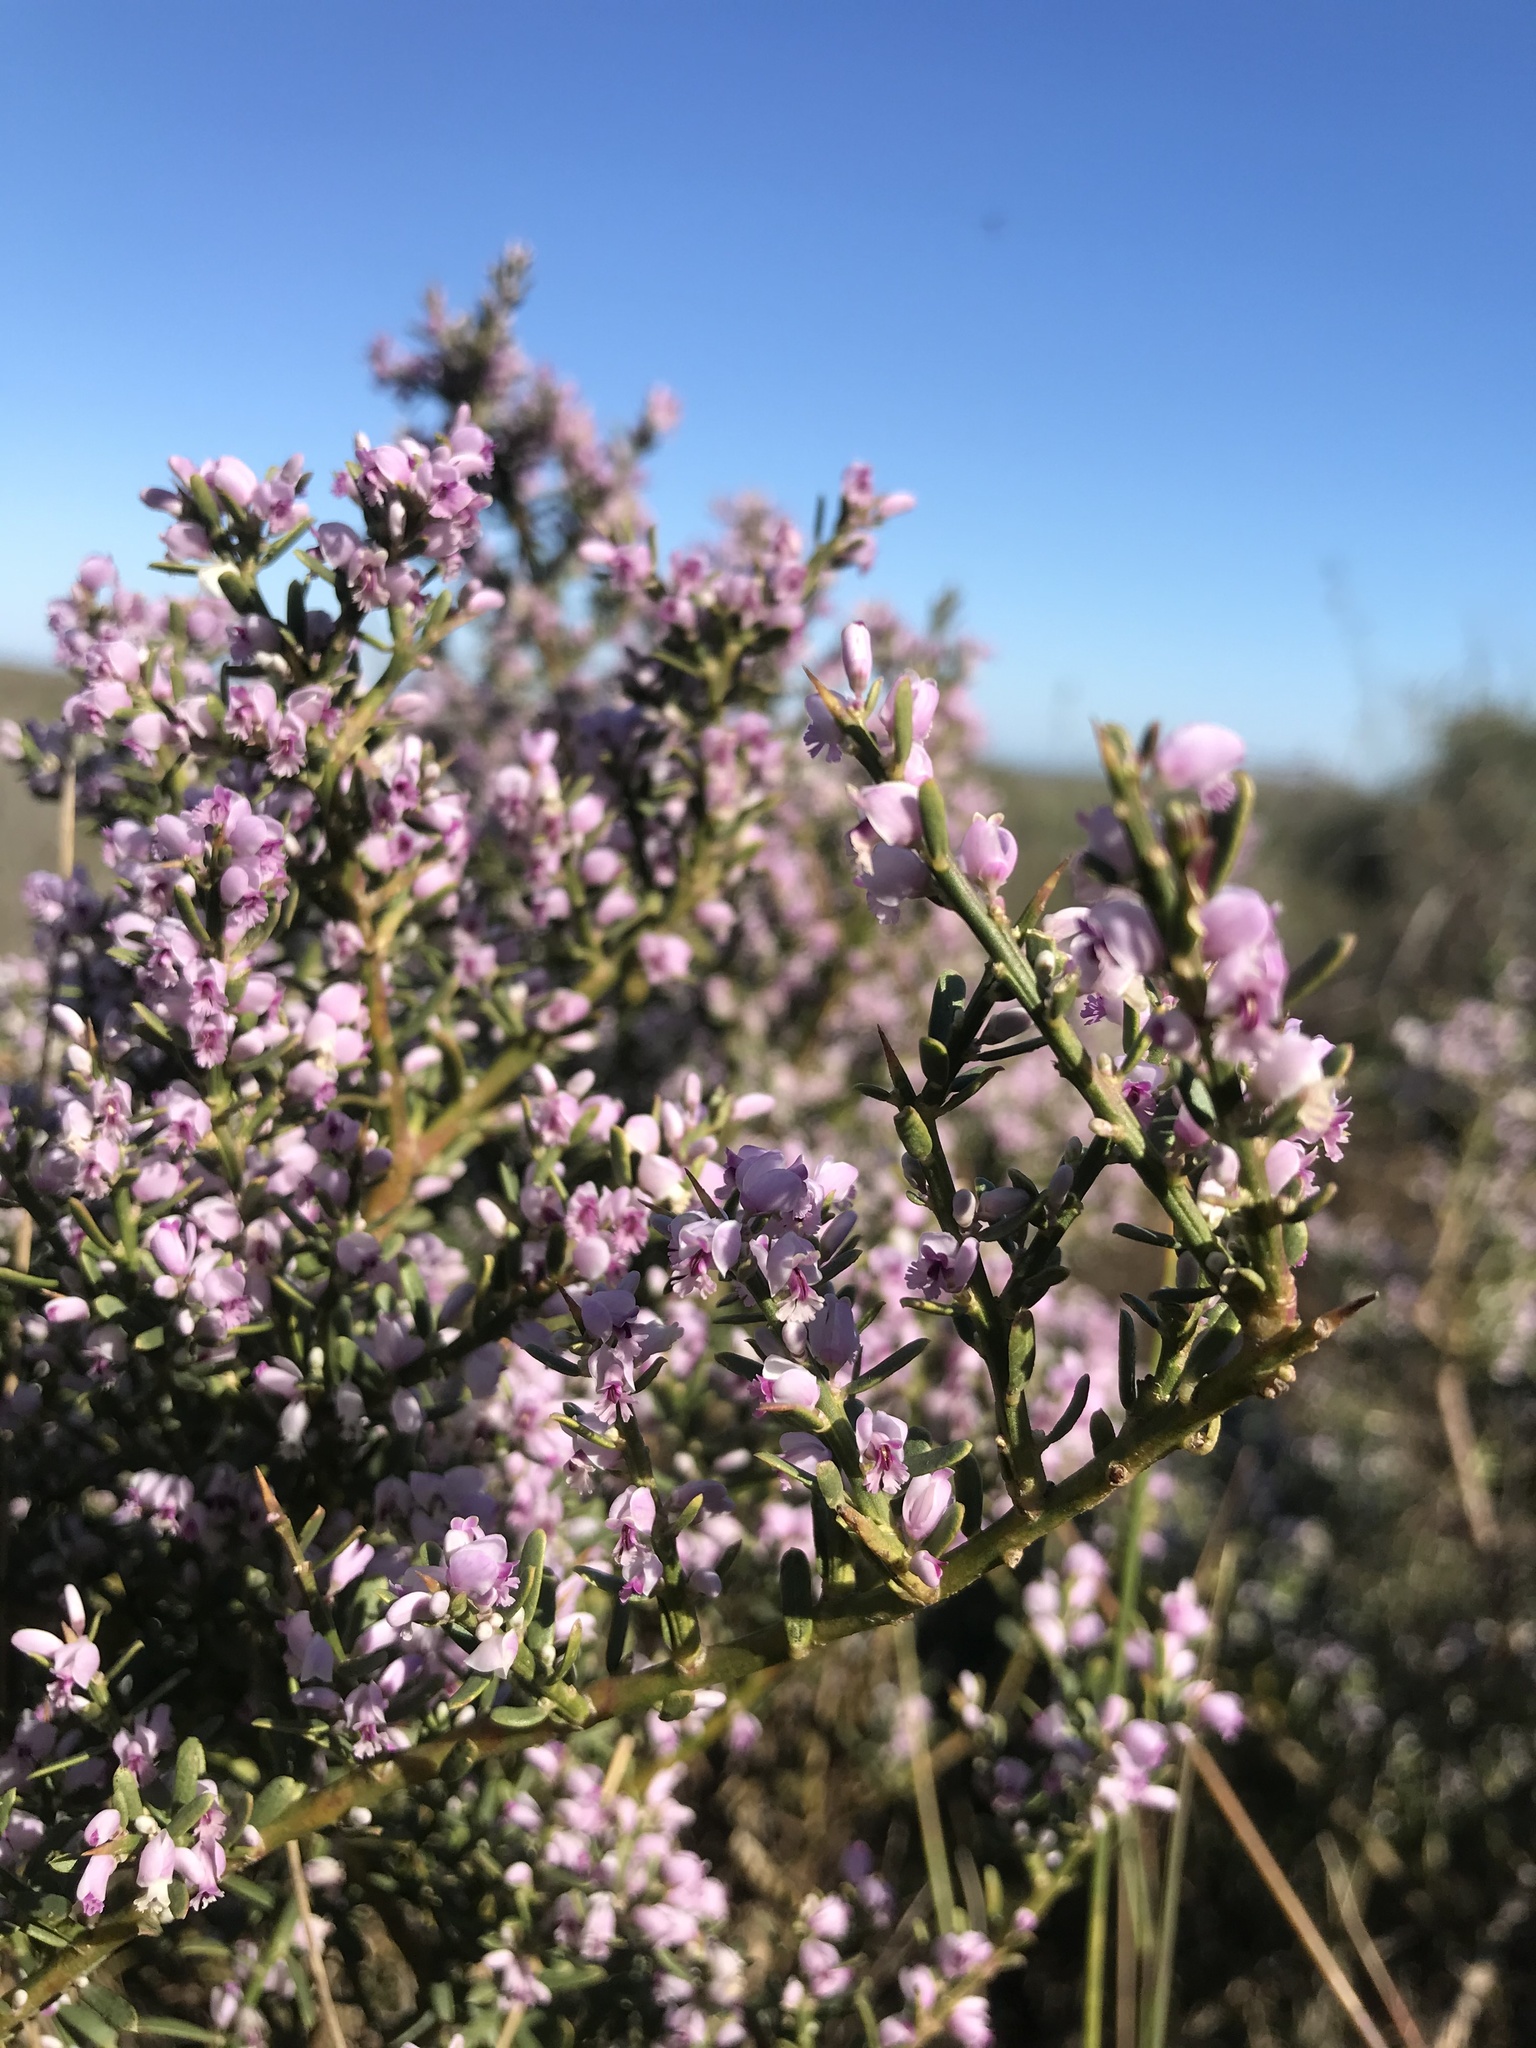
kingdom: Plantae
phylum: Tracheophyta
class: Magnoliopsida
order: Fabales
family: Polygalaceae
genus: Muraltia
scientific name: Muraltia spinosa
